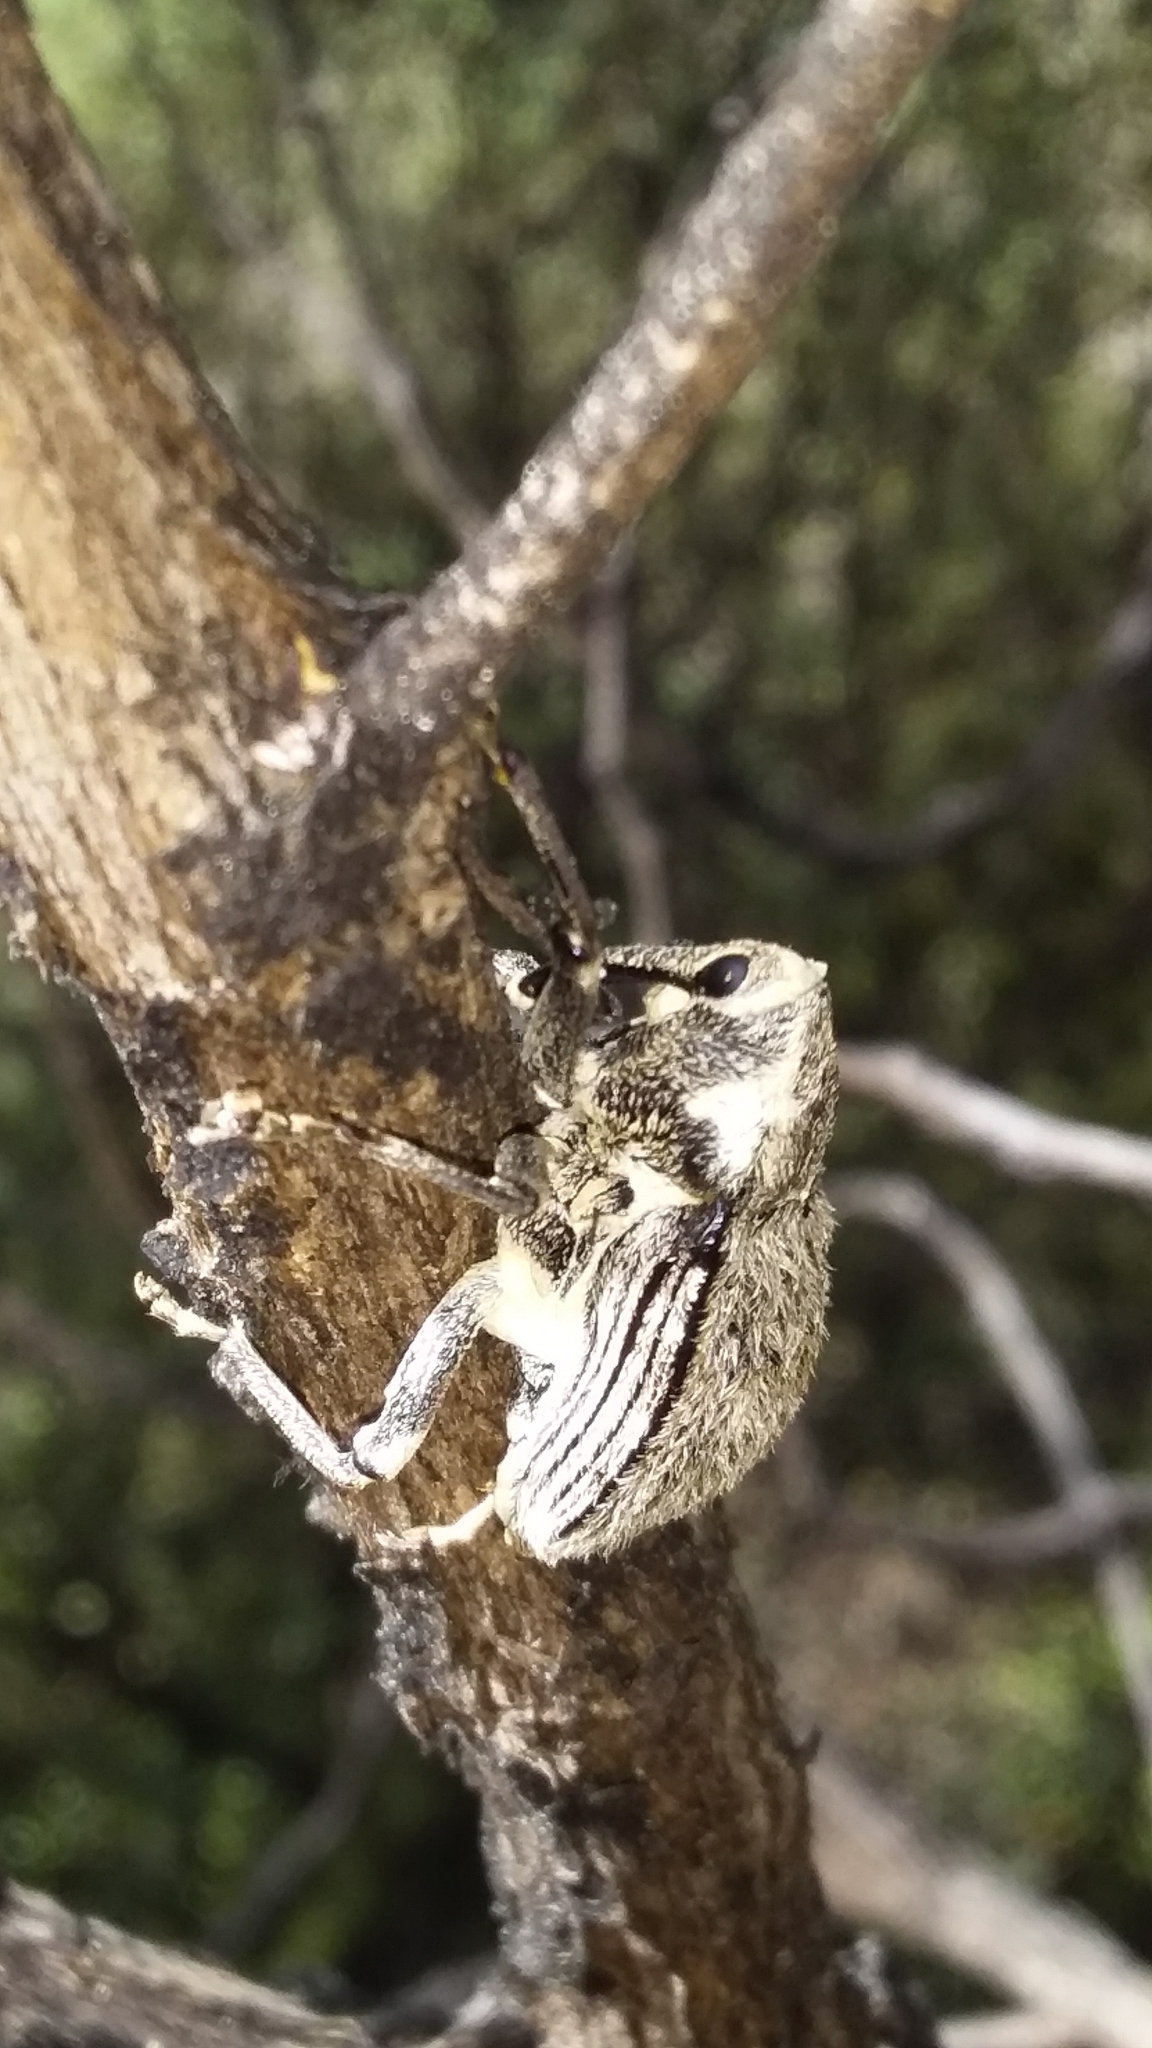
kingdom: Animalia
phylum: Arthropoda
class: Insecta
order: Coleoptera
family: Curculionidae
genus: Rhynchodes
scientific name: Rhynchodes ursus
